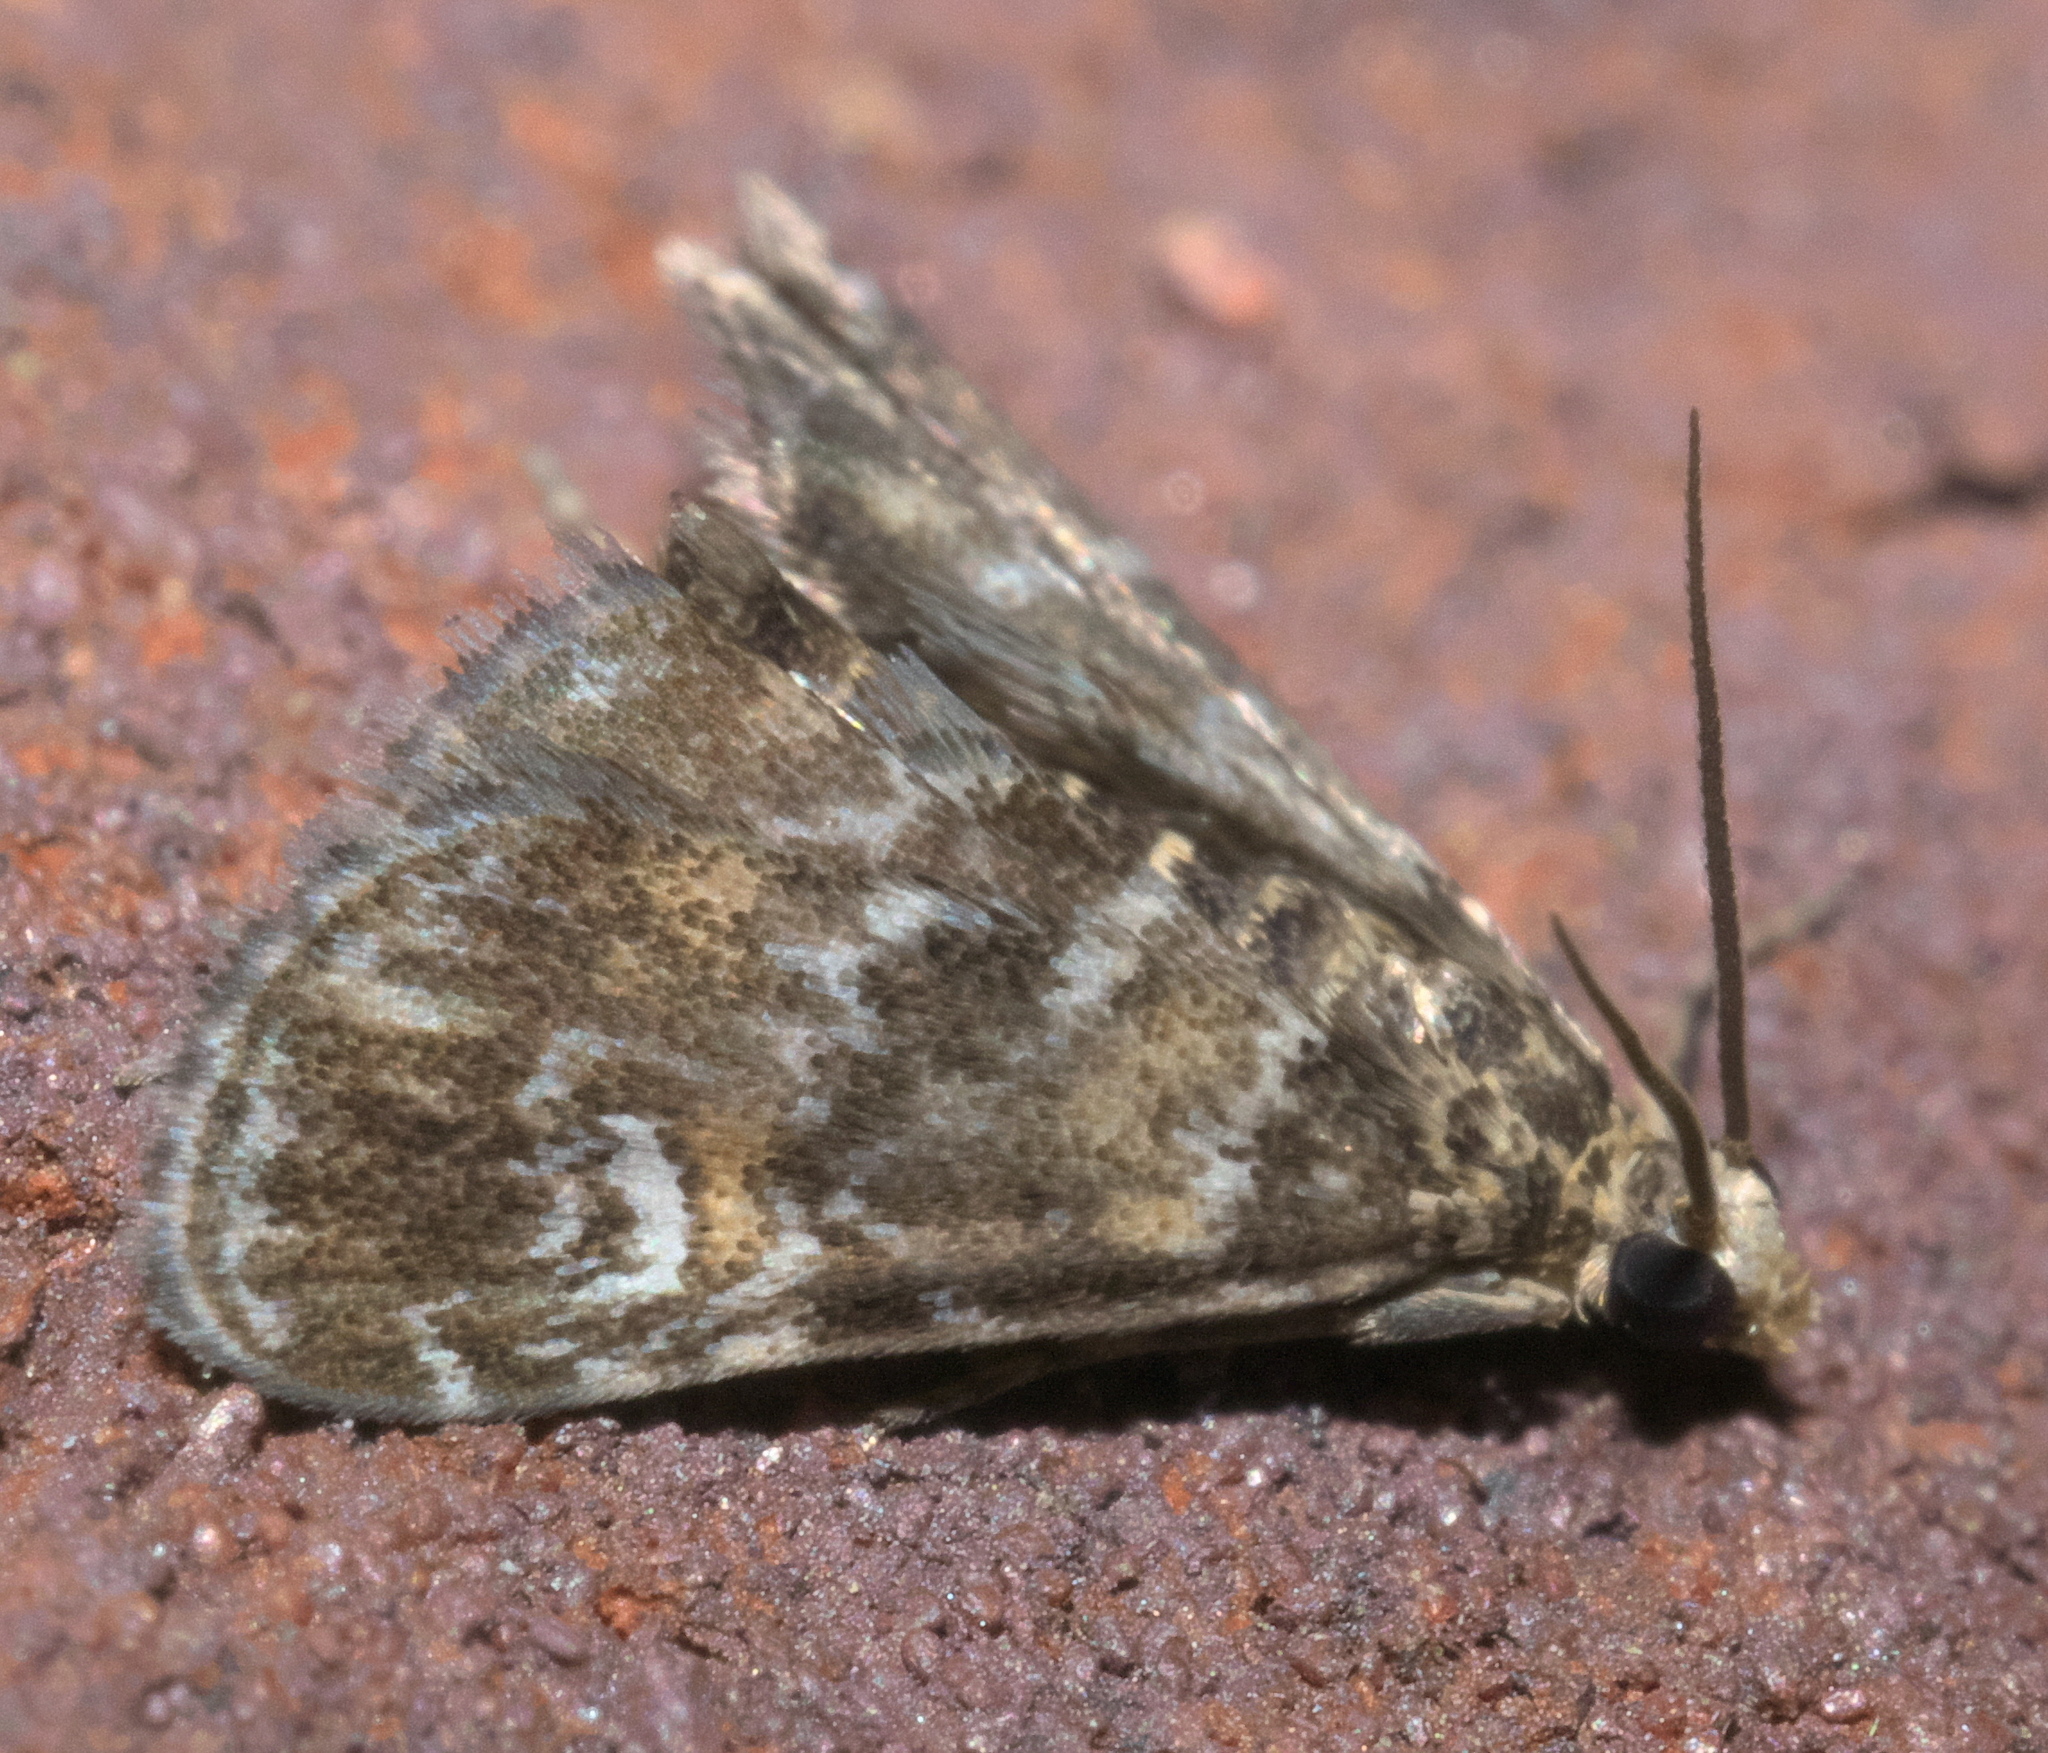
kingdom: Animalia
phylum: Arthropoda
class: Insecta
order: Lepidoptera
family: Crambidae
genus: Elophila
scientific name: Elophila obliteralis
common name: Waterlily leafcutter moth
